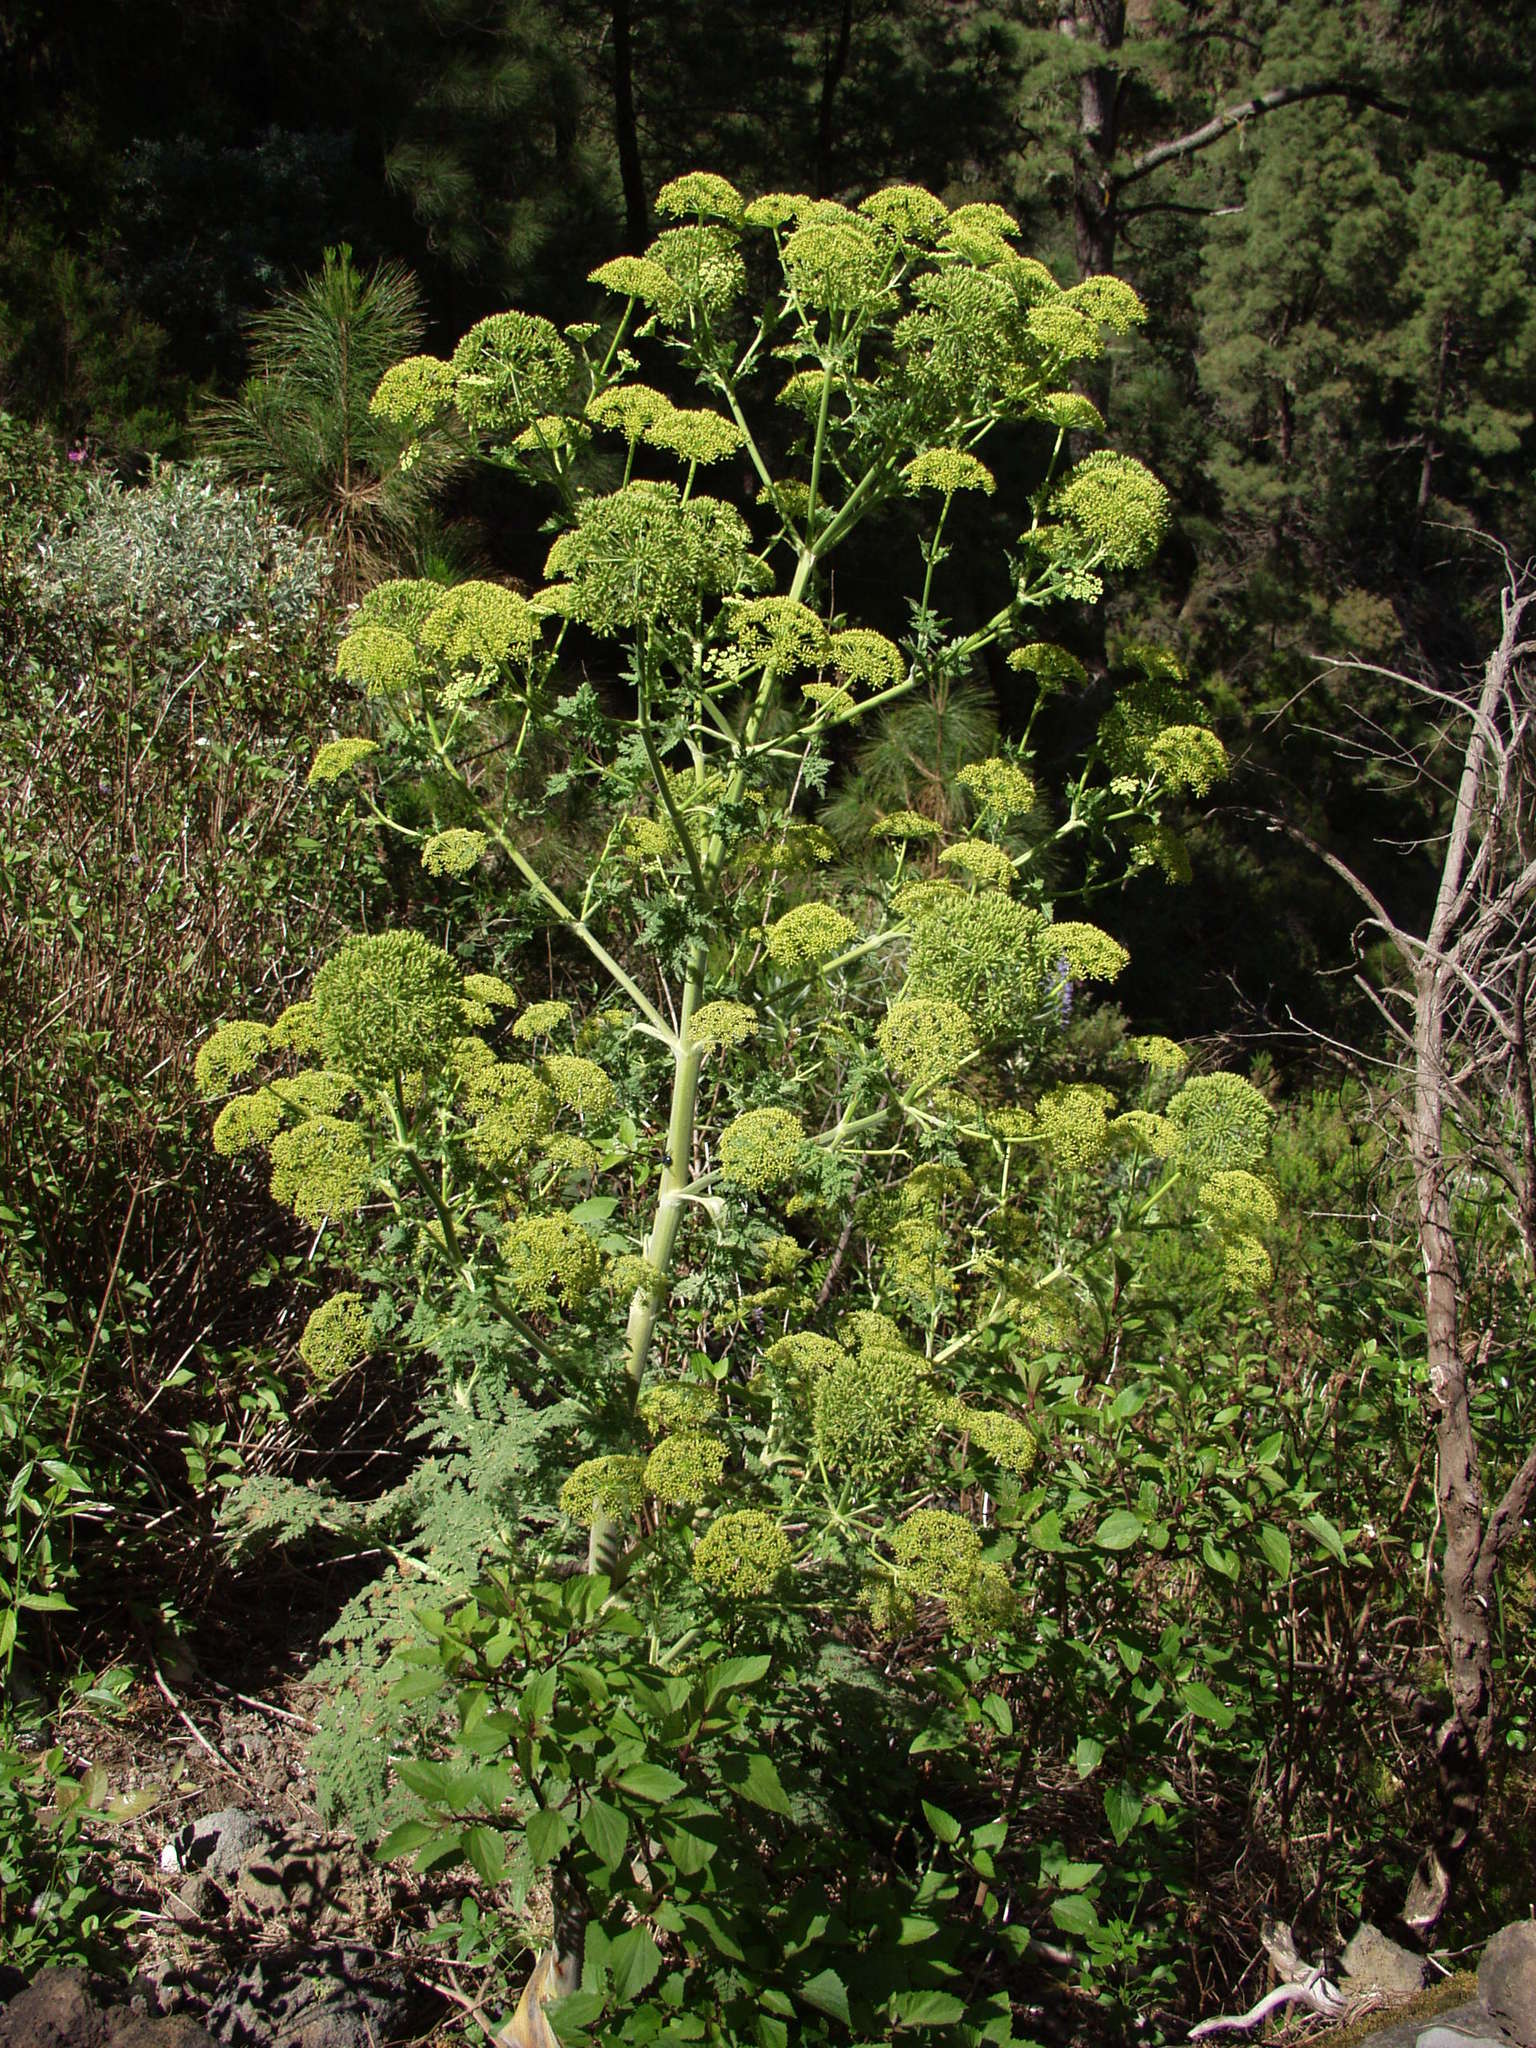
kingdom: Plantae
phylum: Tracheophyta
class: Magnoliopsida
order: Apiales
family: Apiaceae
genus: Athamanta
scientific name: Athamanta montana
